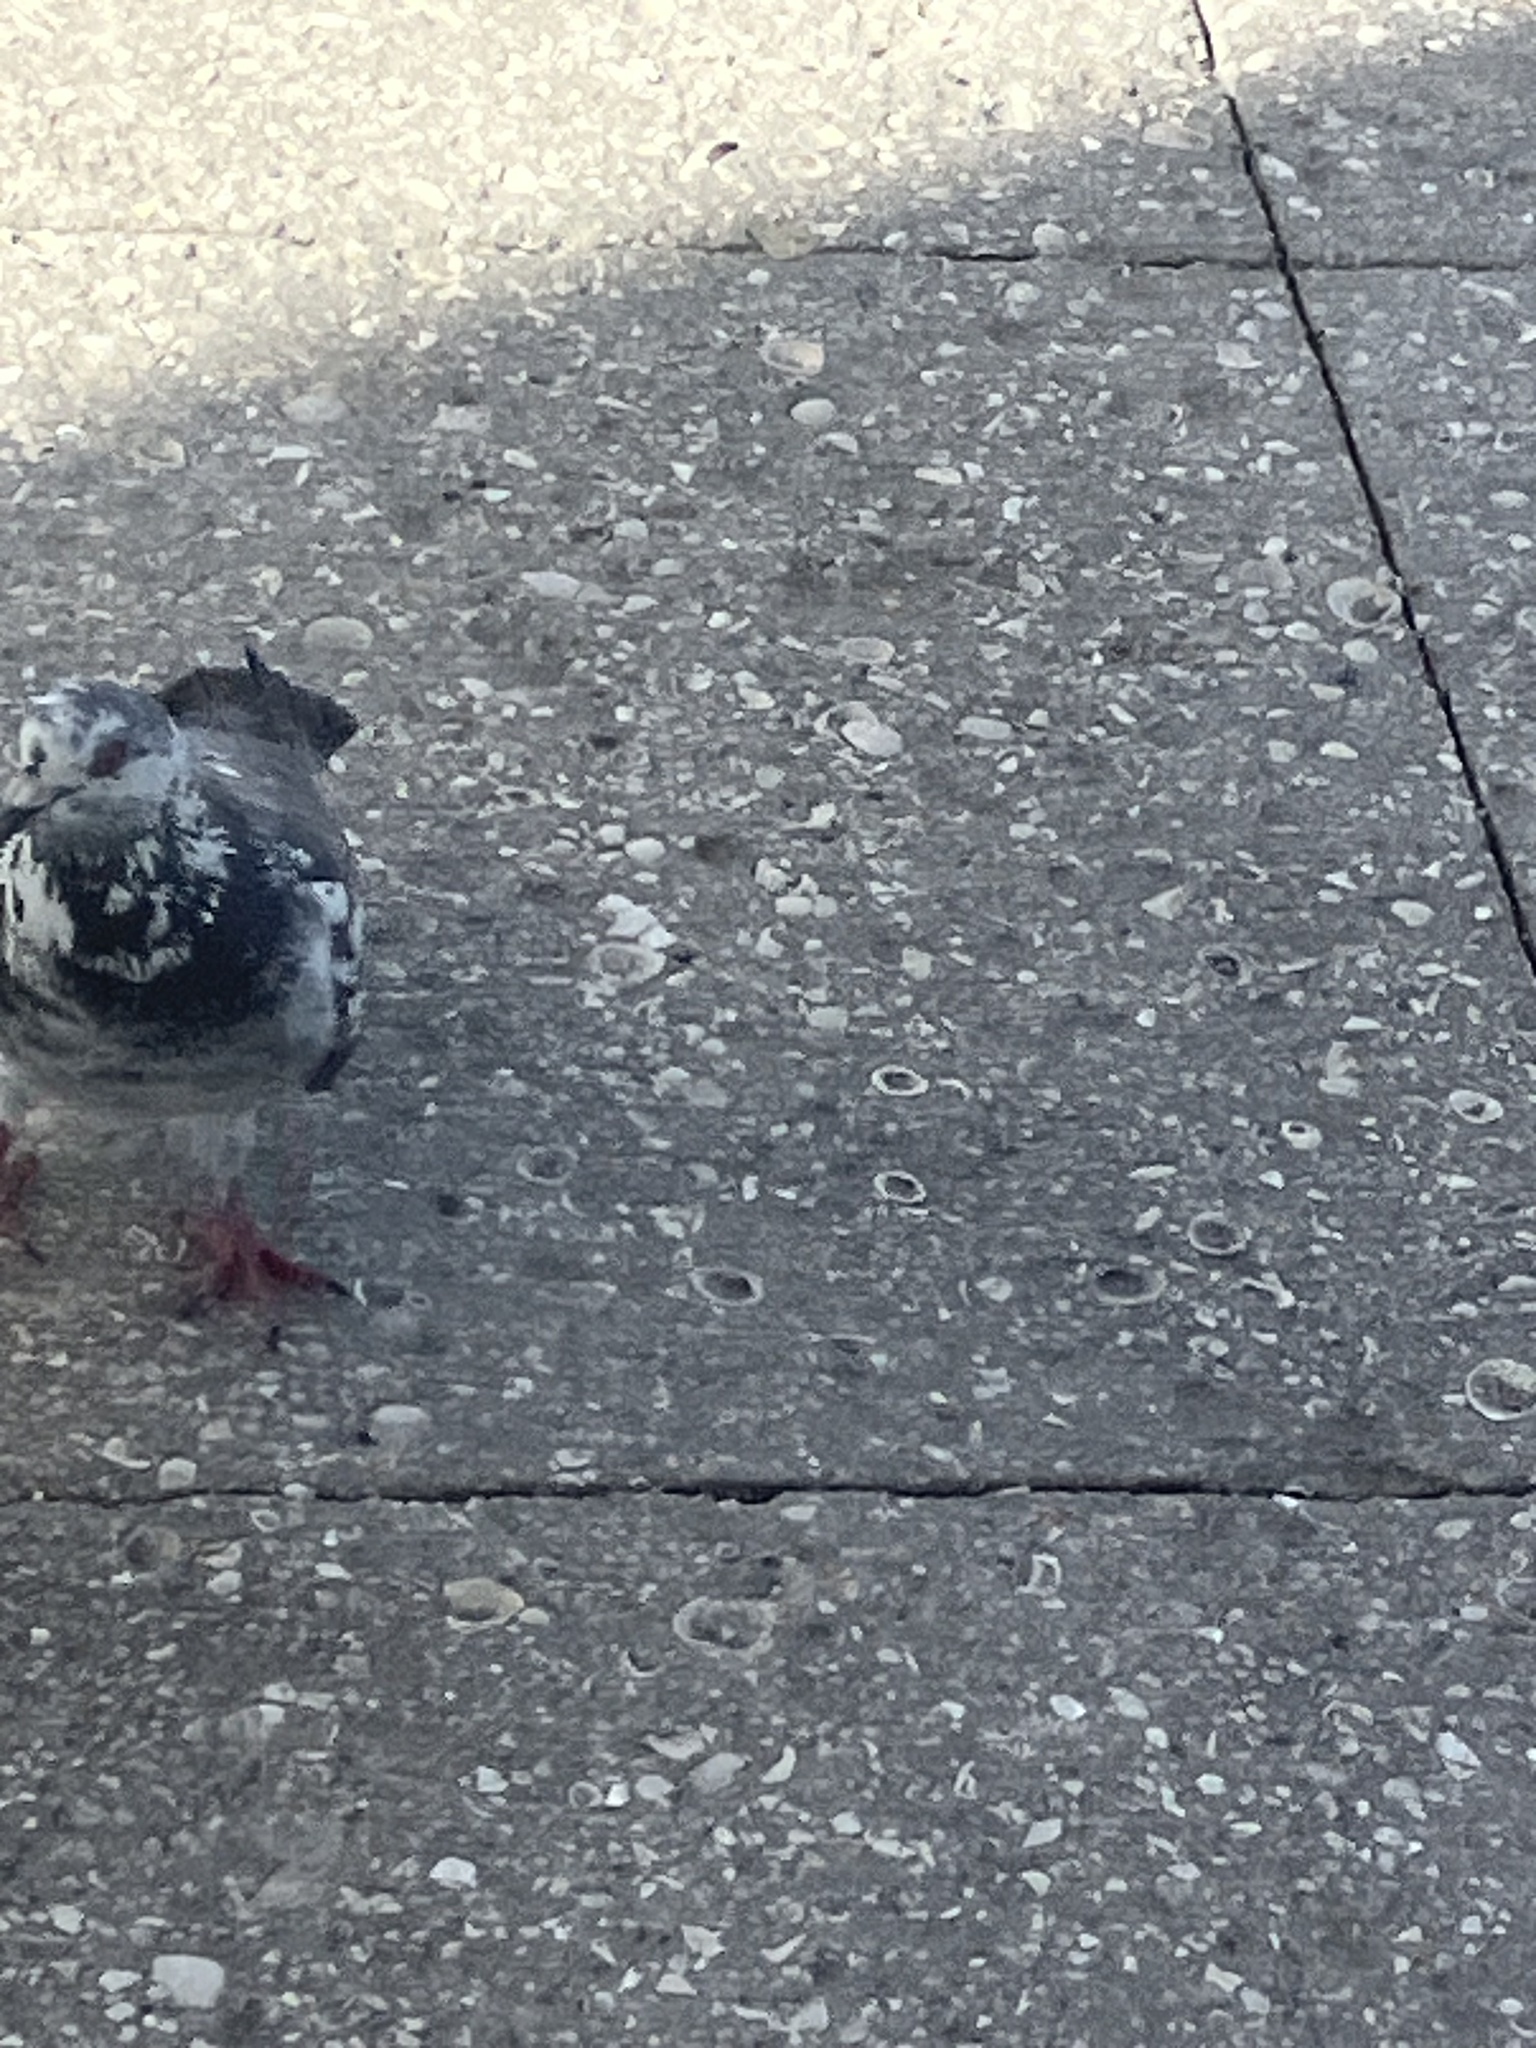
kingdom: Animalia
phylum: Chordata
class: Aves
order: Columbiformes
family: Columbidae
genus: Columba
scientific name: Columba livia
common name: Rock pigeon
